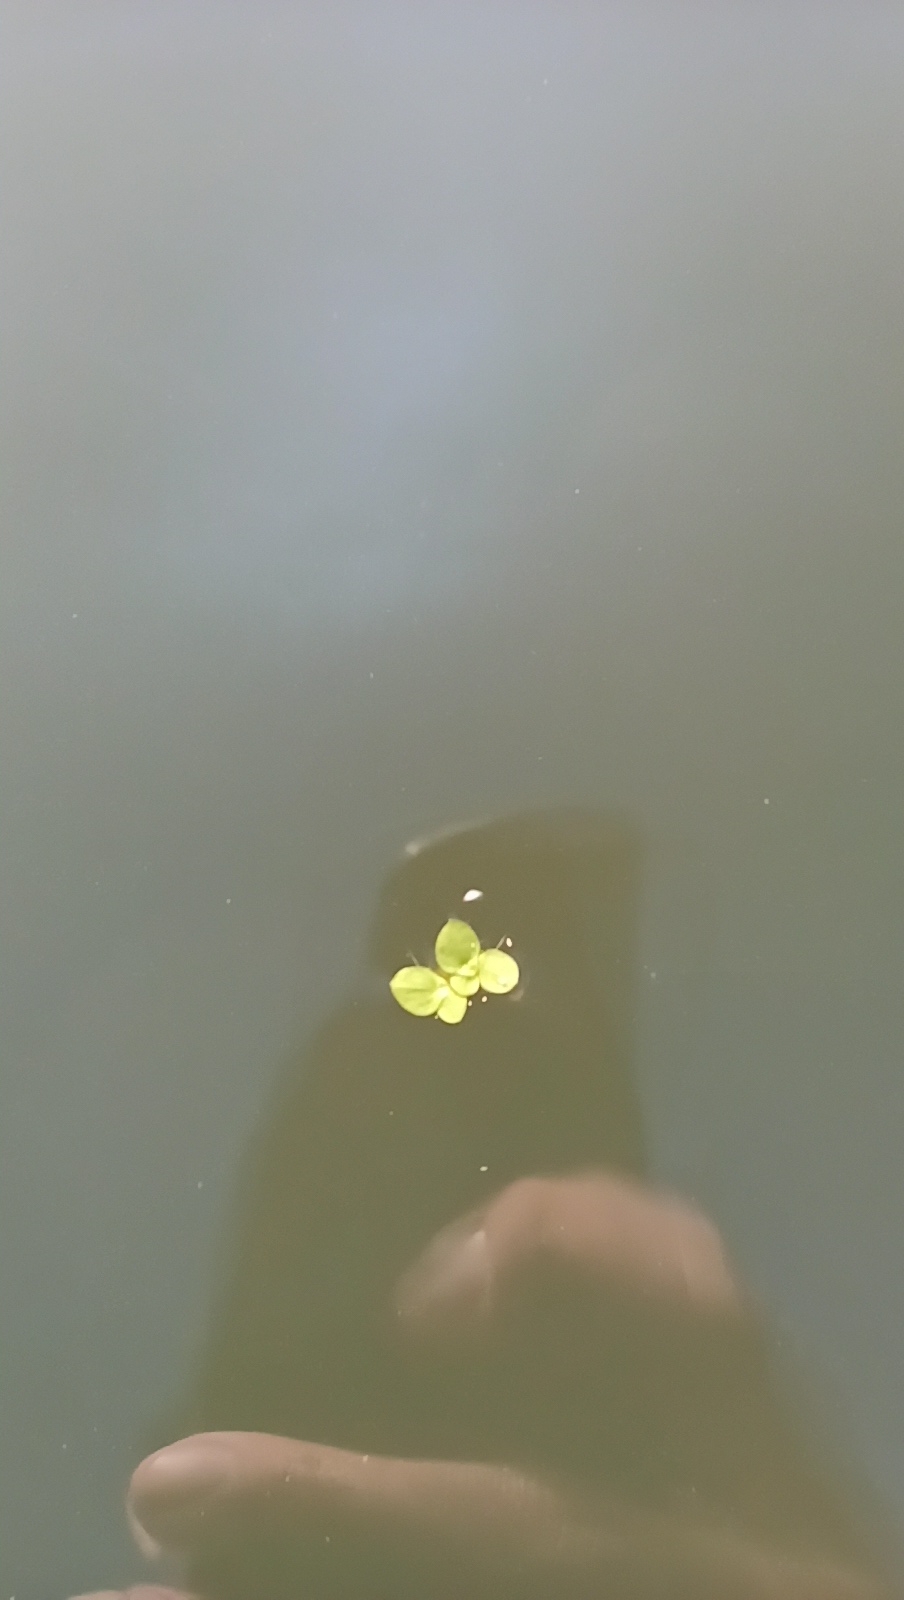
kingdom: Plantae
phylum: Tracheophyta
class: Liliopsida
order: Alismatales
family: Araceae
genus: Spirodela
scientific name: Spirodela polyrhiza
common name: Great duckweed
